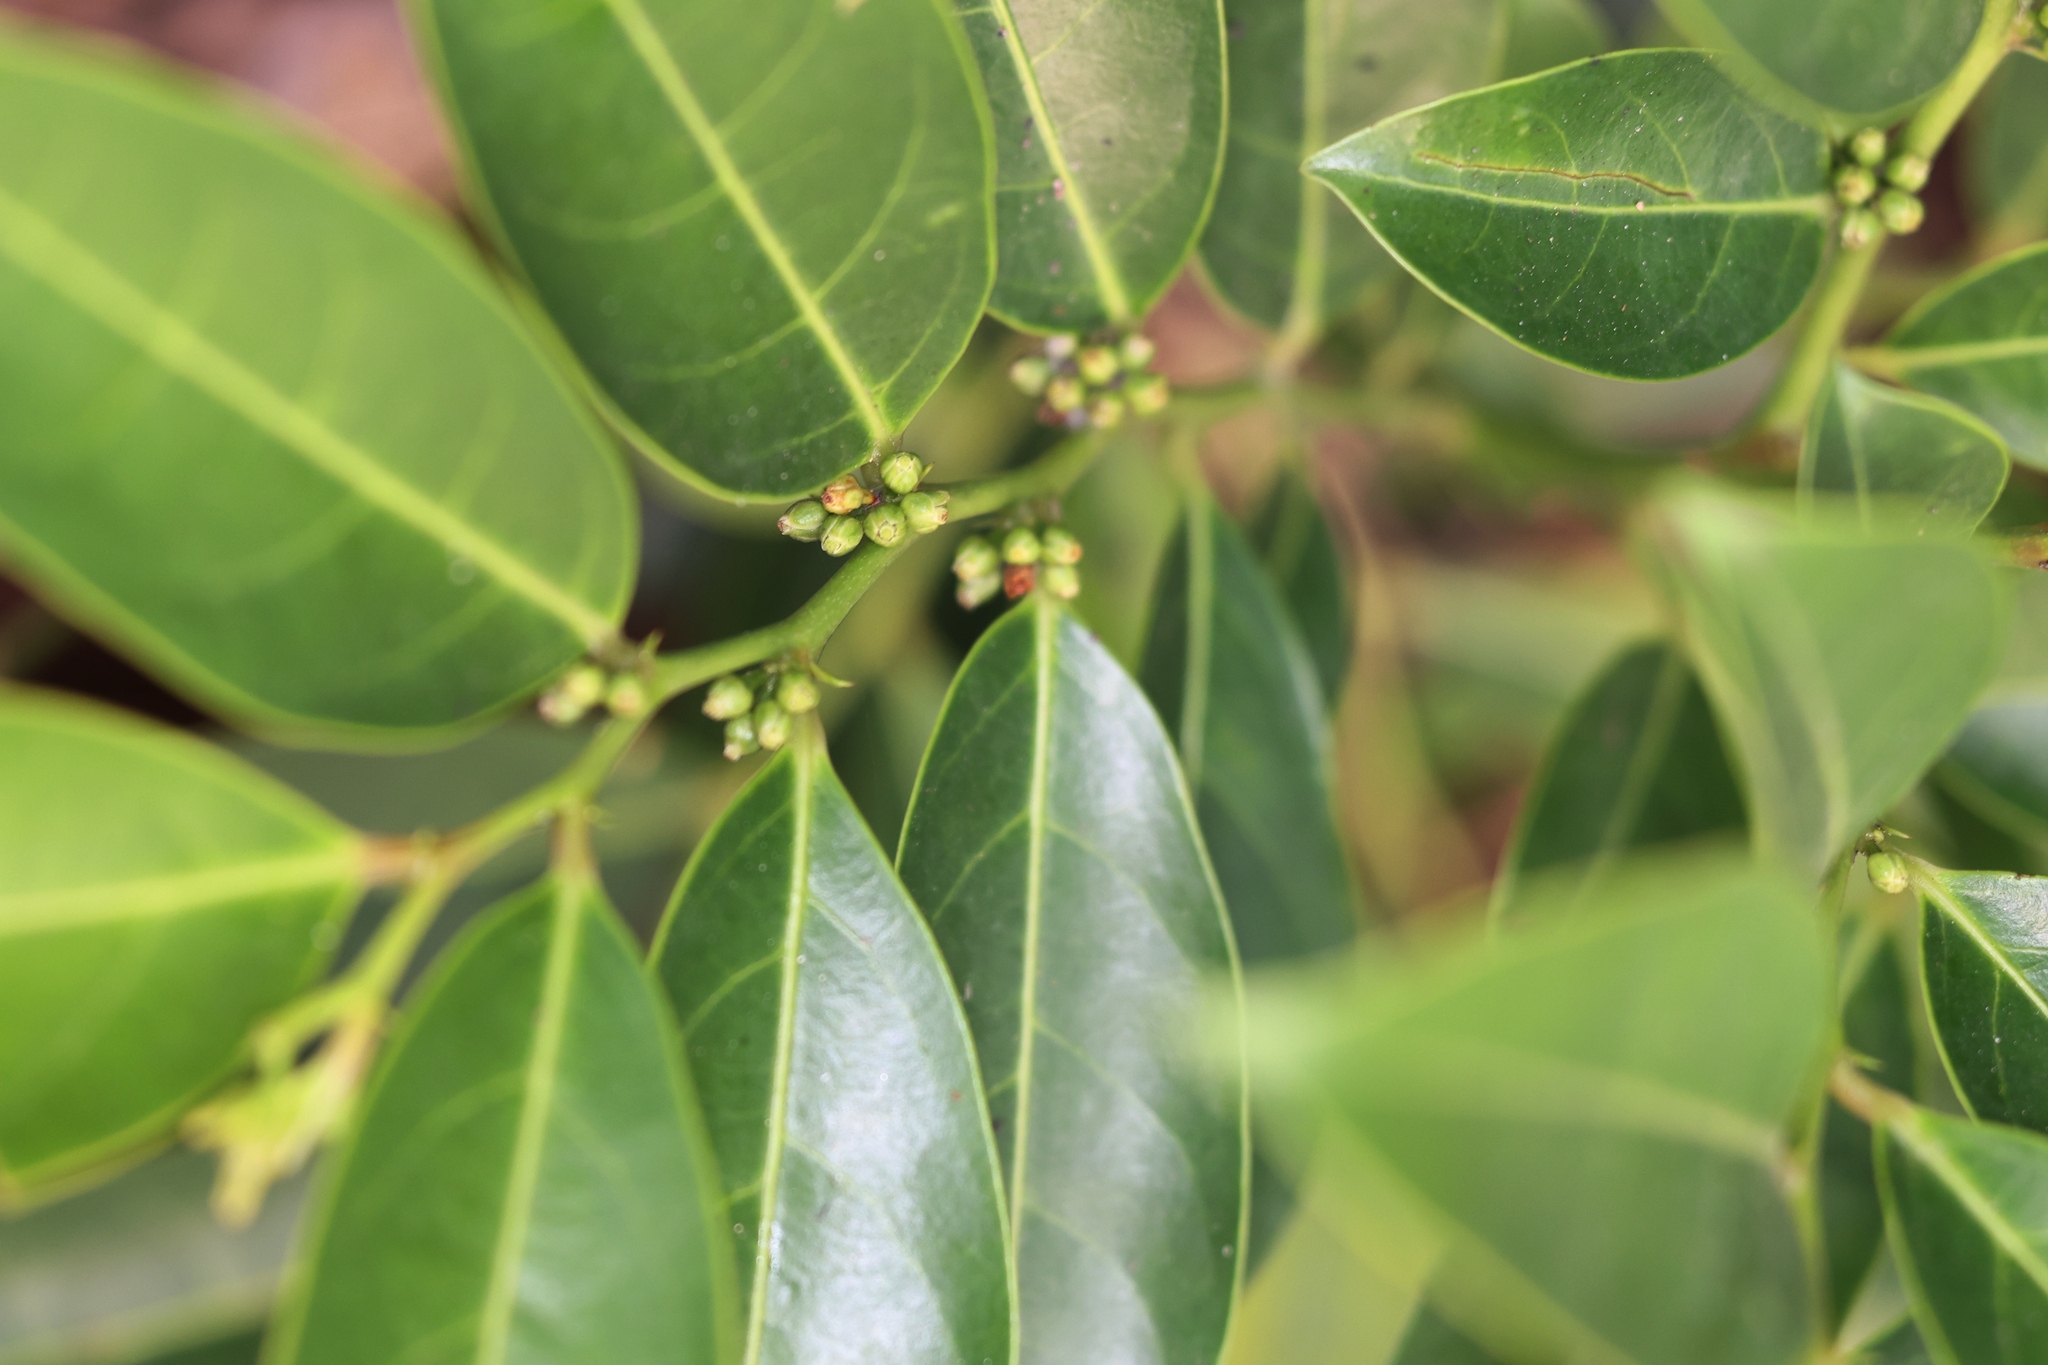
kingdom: Plantae
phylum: Tracheophyta
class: Magnoliopsida
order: Malpighiales
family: Phyllanthaceae
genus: Glochidion
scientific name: Glochidion lanceolarium
